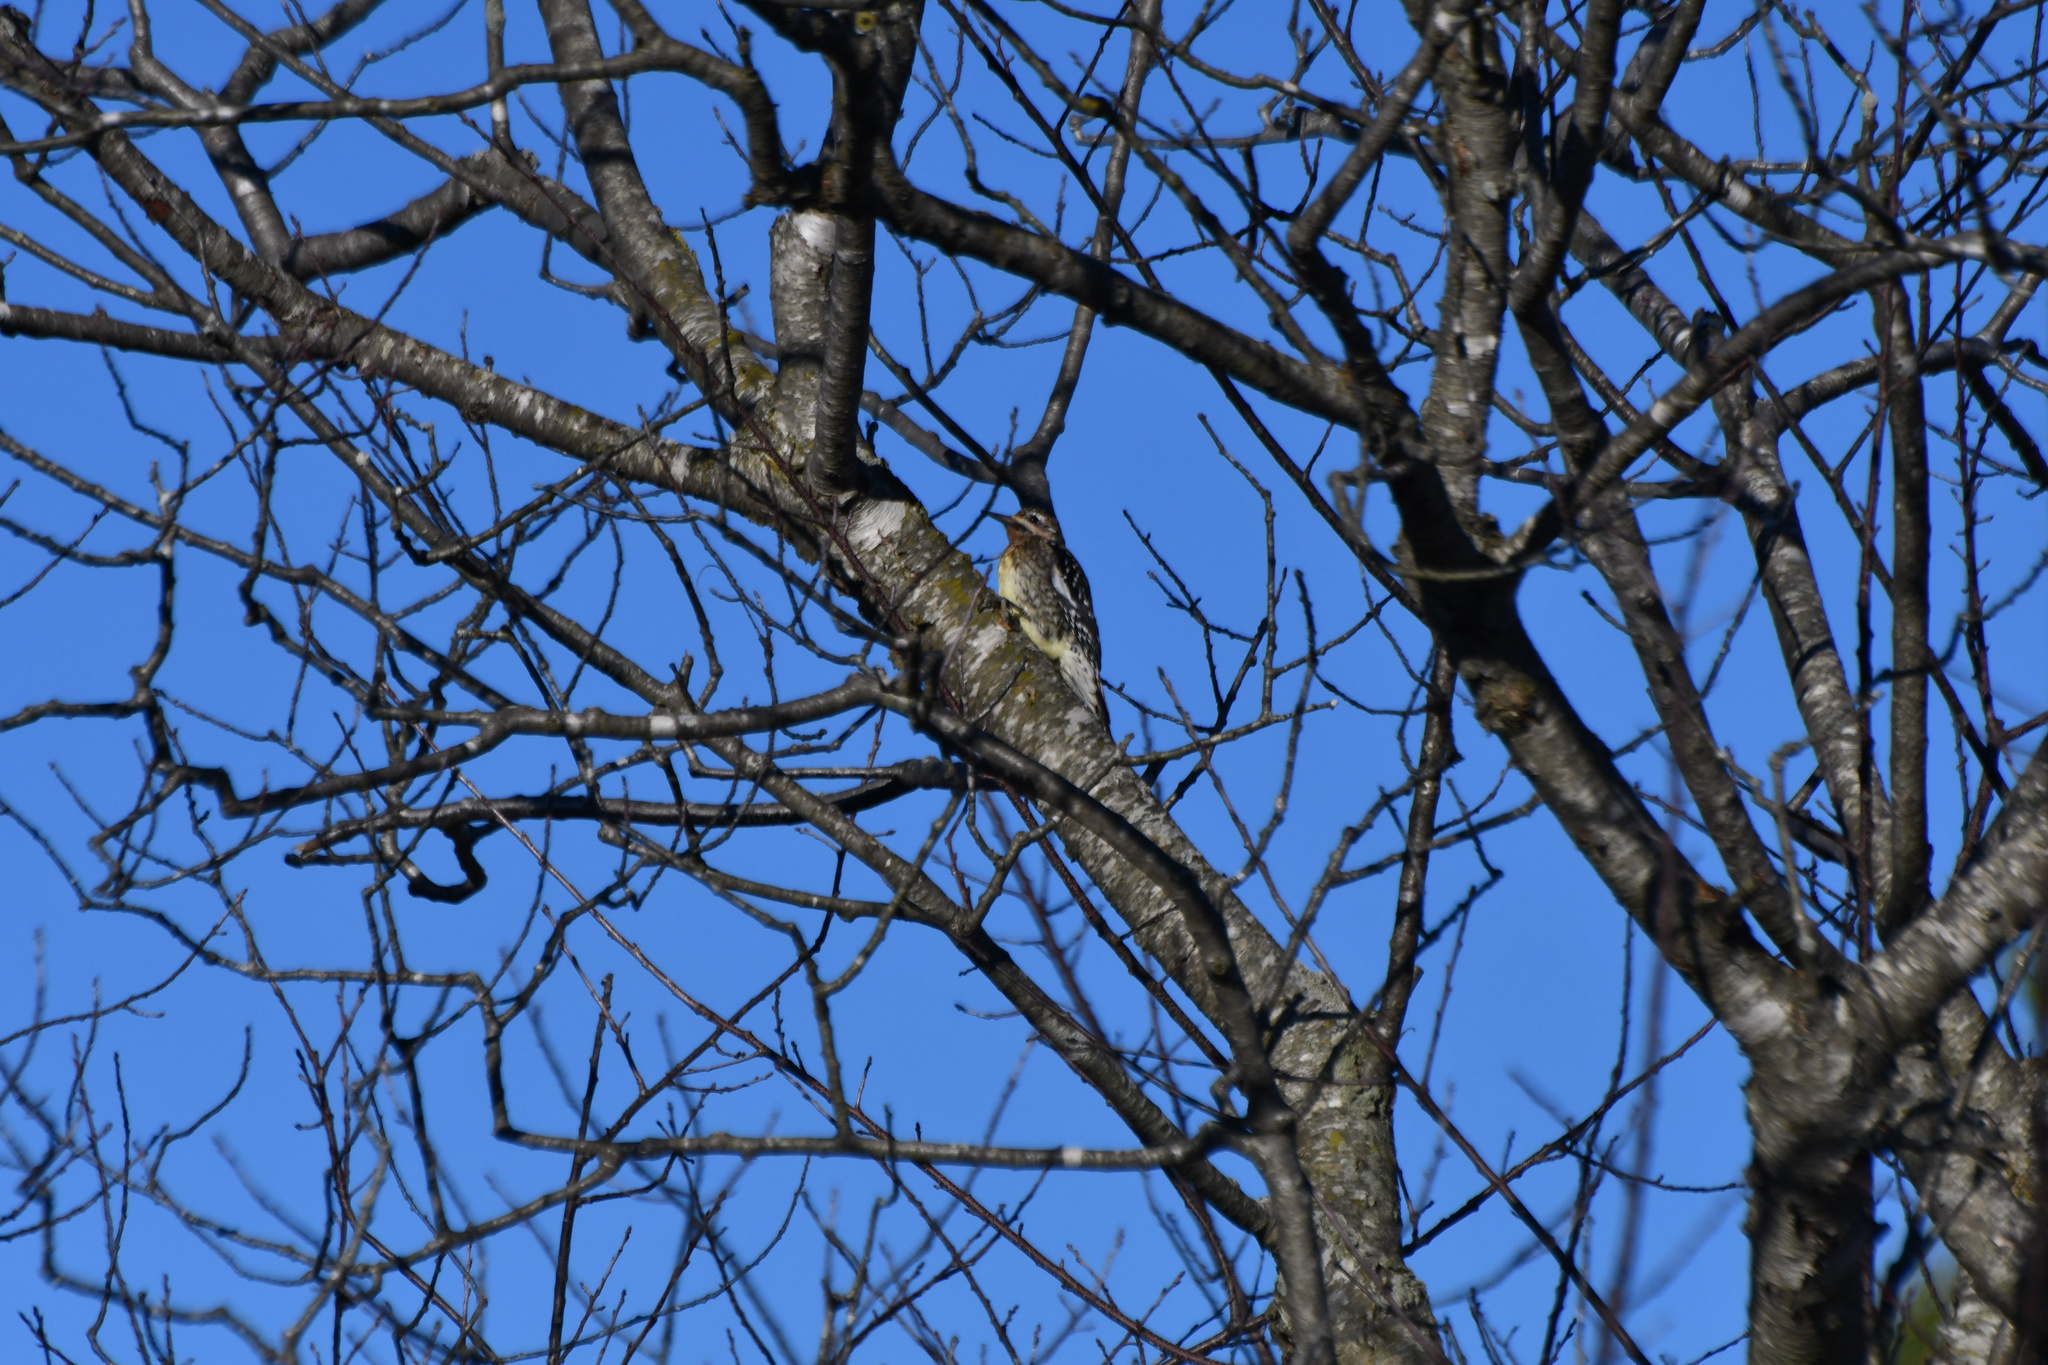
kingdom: Animalia
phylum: Chordata
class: Aves
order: Piciformes
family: Picidae
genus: Sphyrapicus
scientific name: Sphyrapicus varius
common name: Yellow-bellied sapsucker
